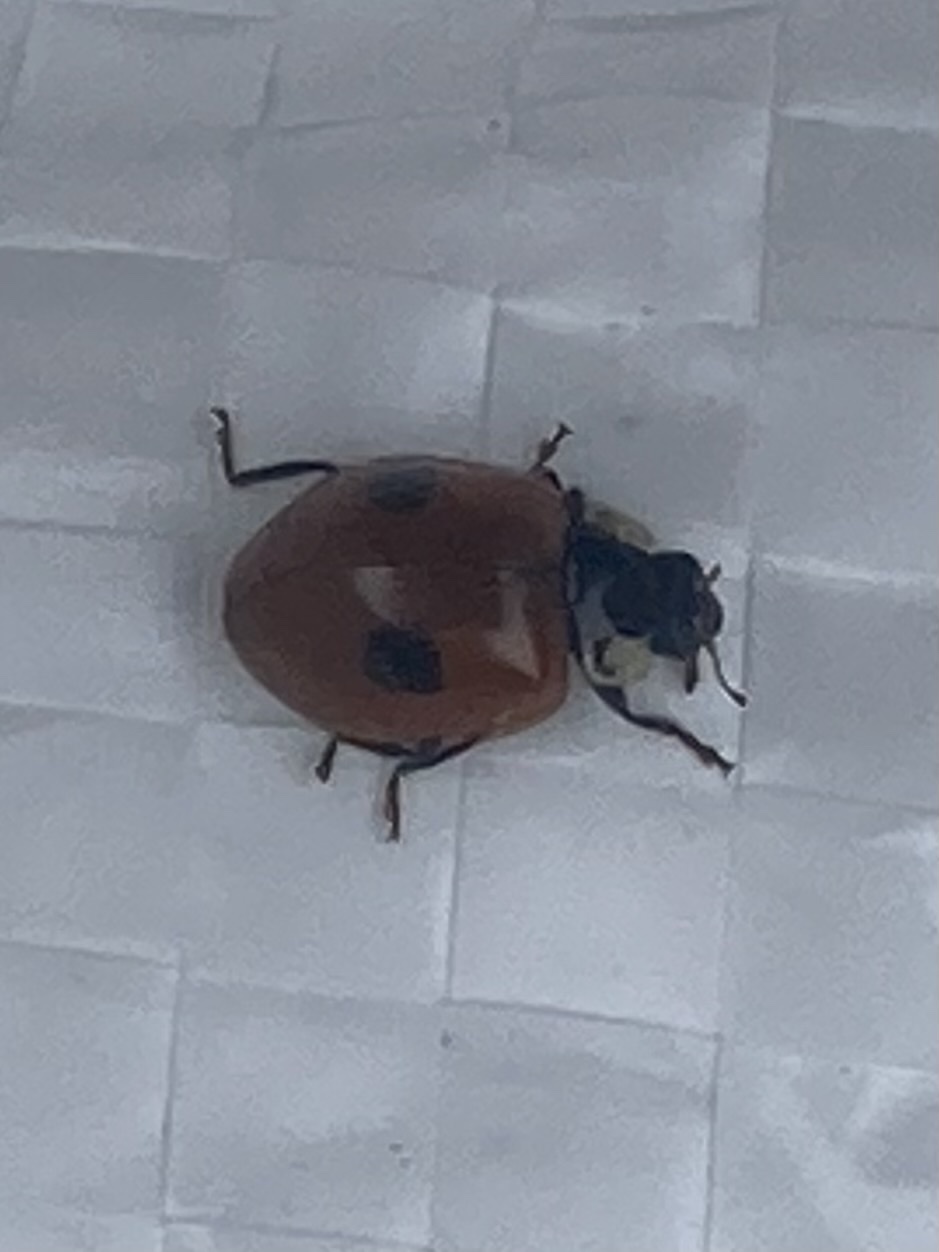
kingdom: Animalia
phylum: Arthropoda
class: Insecta
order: Coleoptera
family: Coccinellidae
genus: Adalia
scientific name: Adalia bipunctata
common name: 2-spot ladybird
